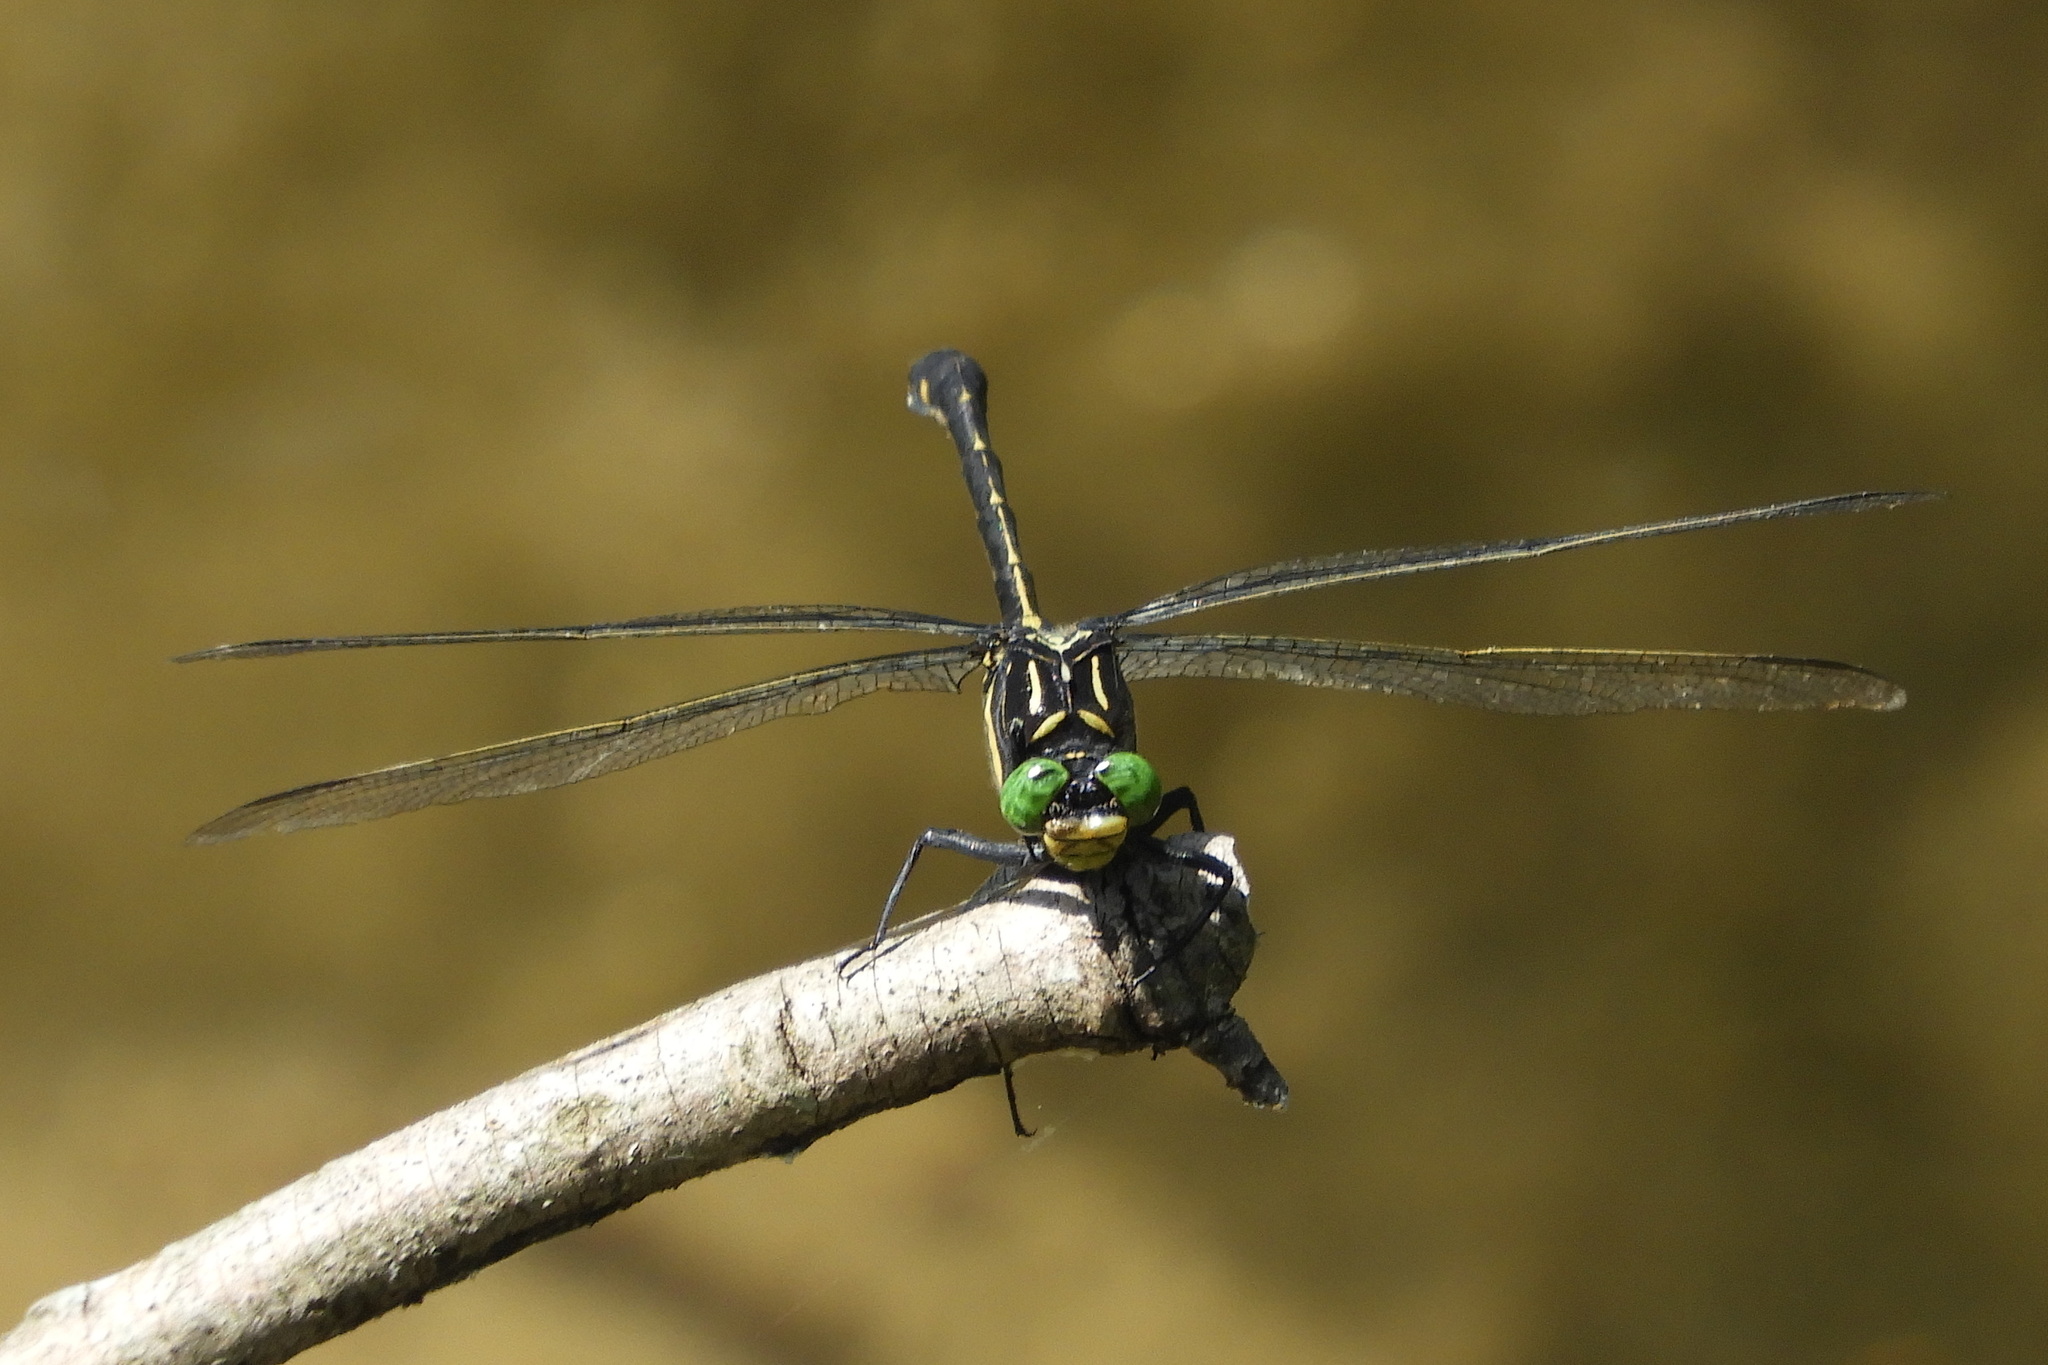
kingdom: Animalia
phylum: Arthropoda
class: Insecta
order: Odonata
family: Gomphidae
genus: Hagenius
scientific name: Hagenius brevistylus
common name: Dragonhunter
